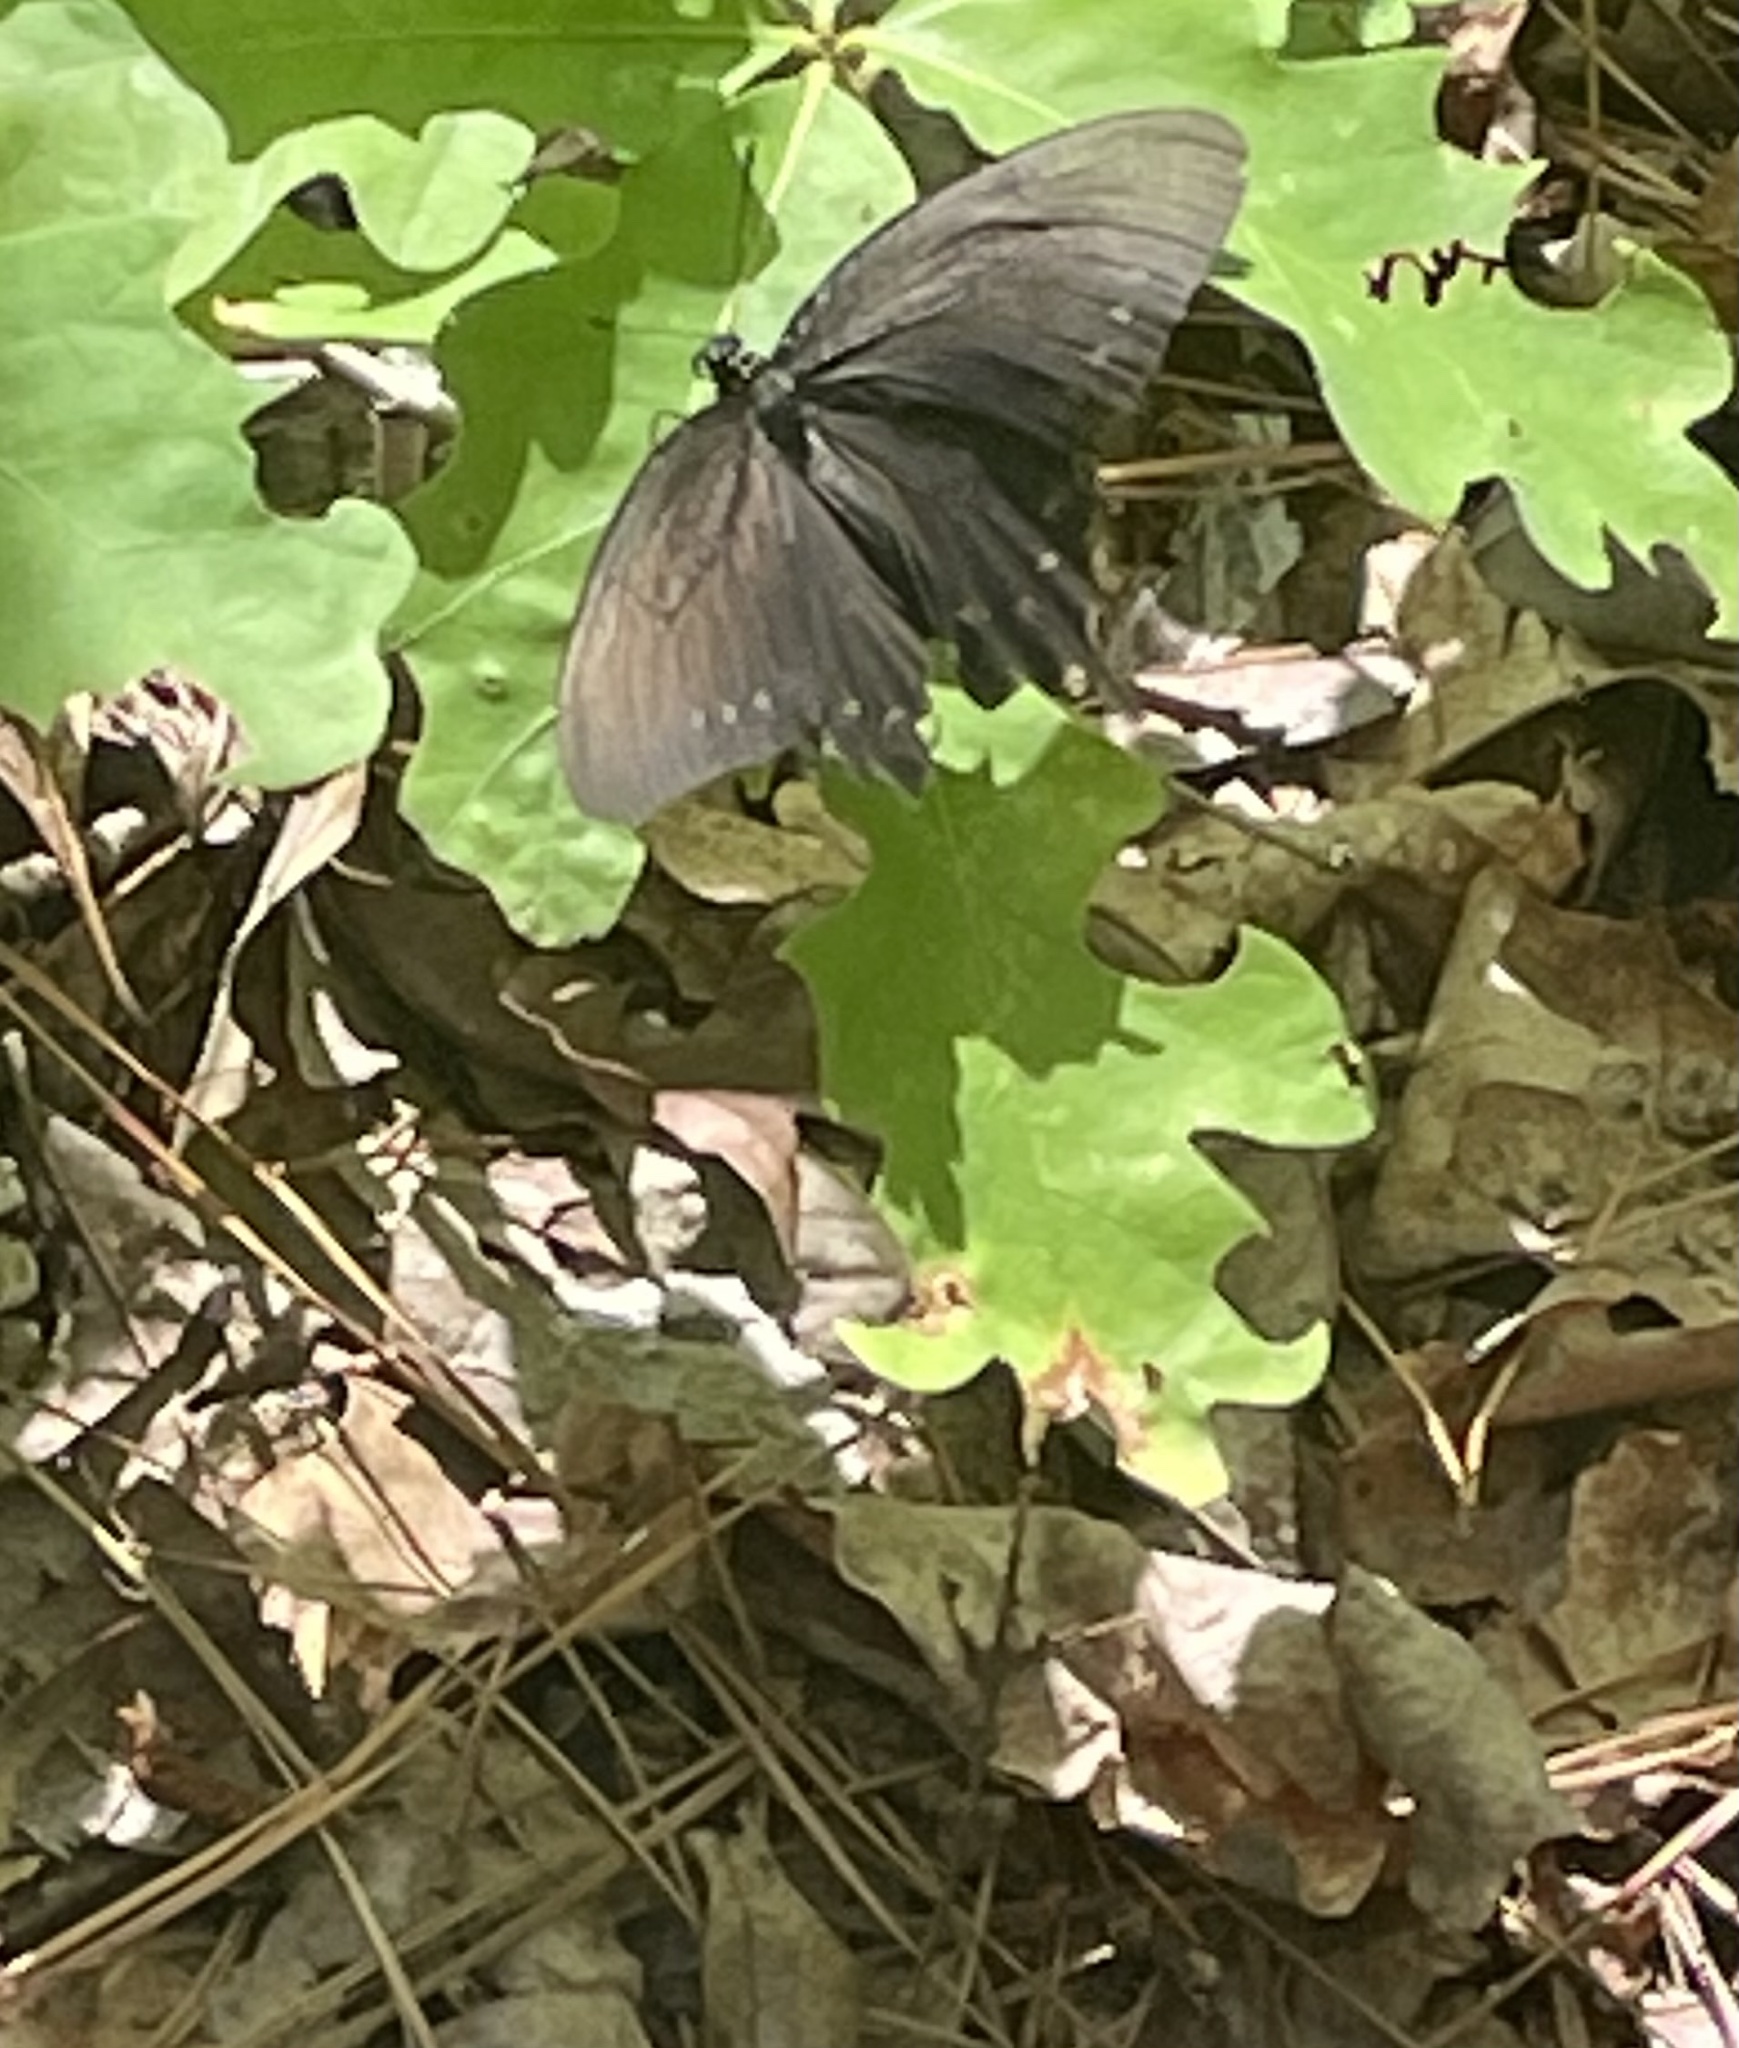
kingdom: Animalia
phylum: Arthropoda
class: Insecta
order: Lepidoptera
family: Papilionidae
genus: Battus
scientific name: Battus philenor
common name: Pipevine swallowtail
